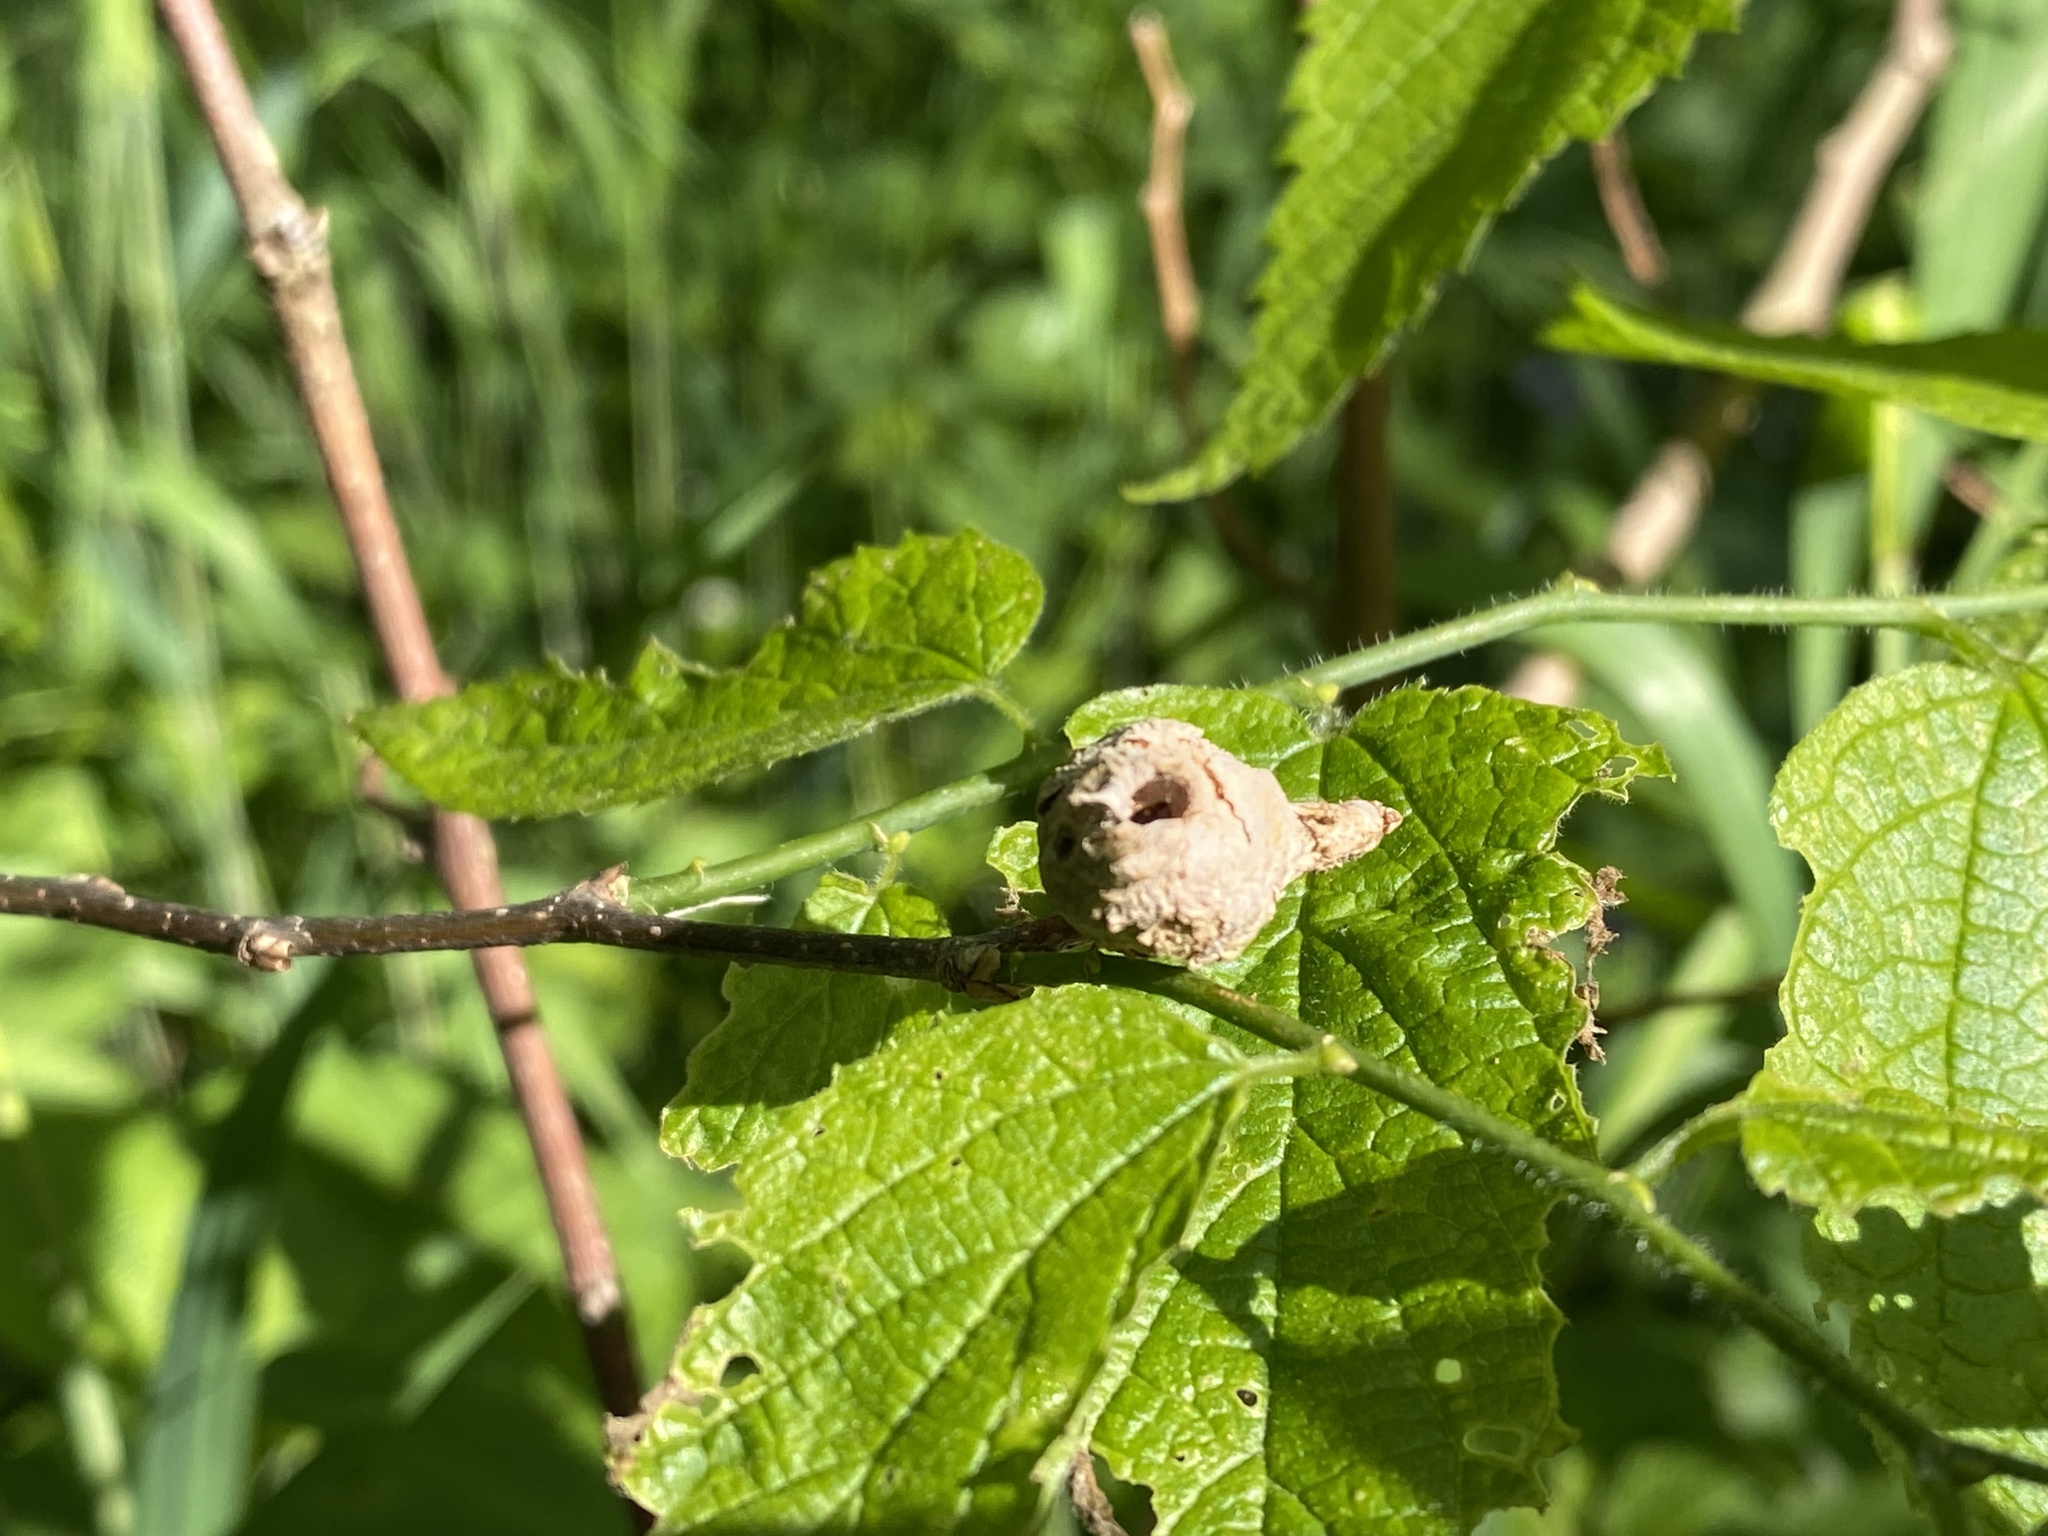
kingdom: Animalia
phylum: Arthropoda
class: Insecta
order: Hymenoptera
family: Vespidae
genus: Eumenes
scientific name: Eumenes
